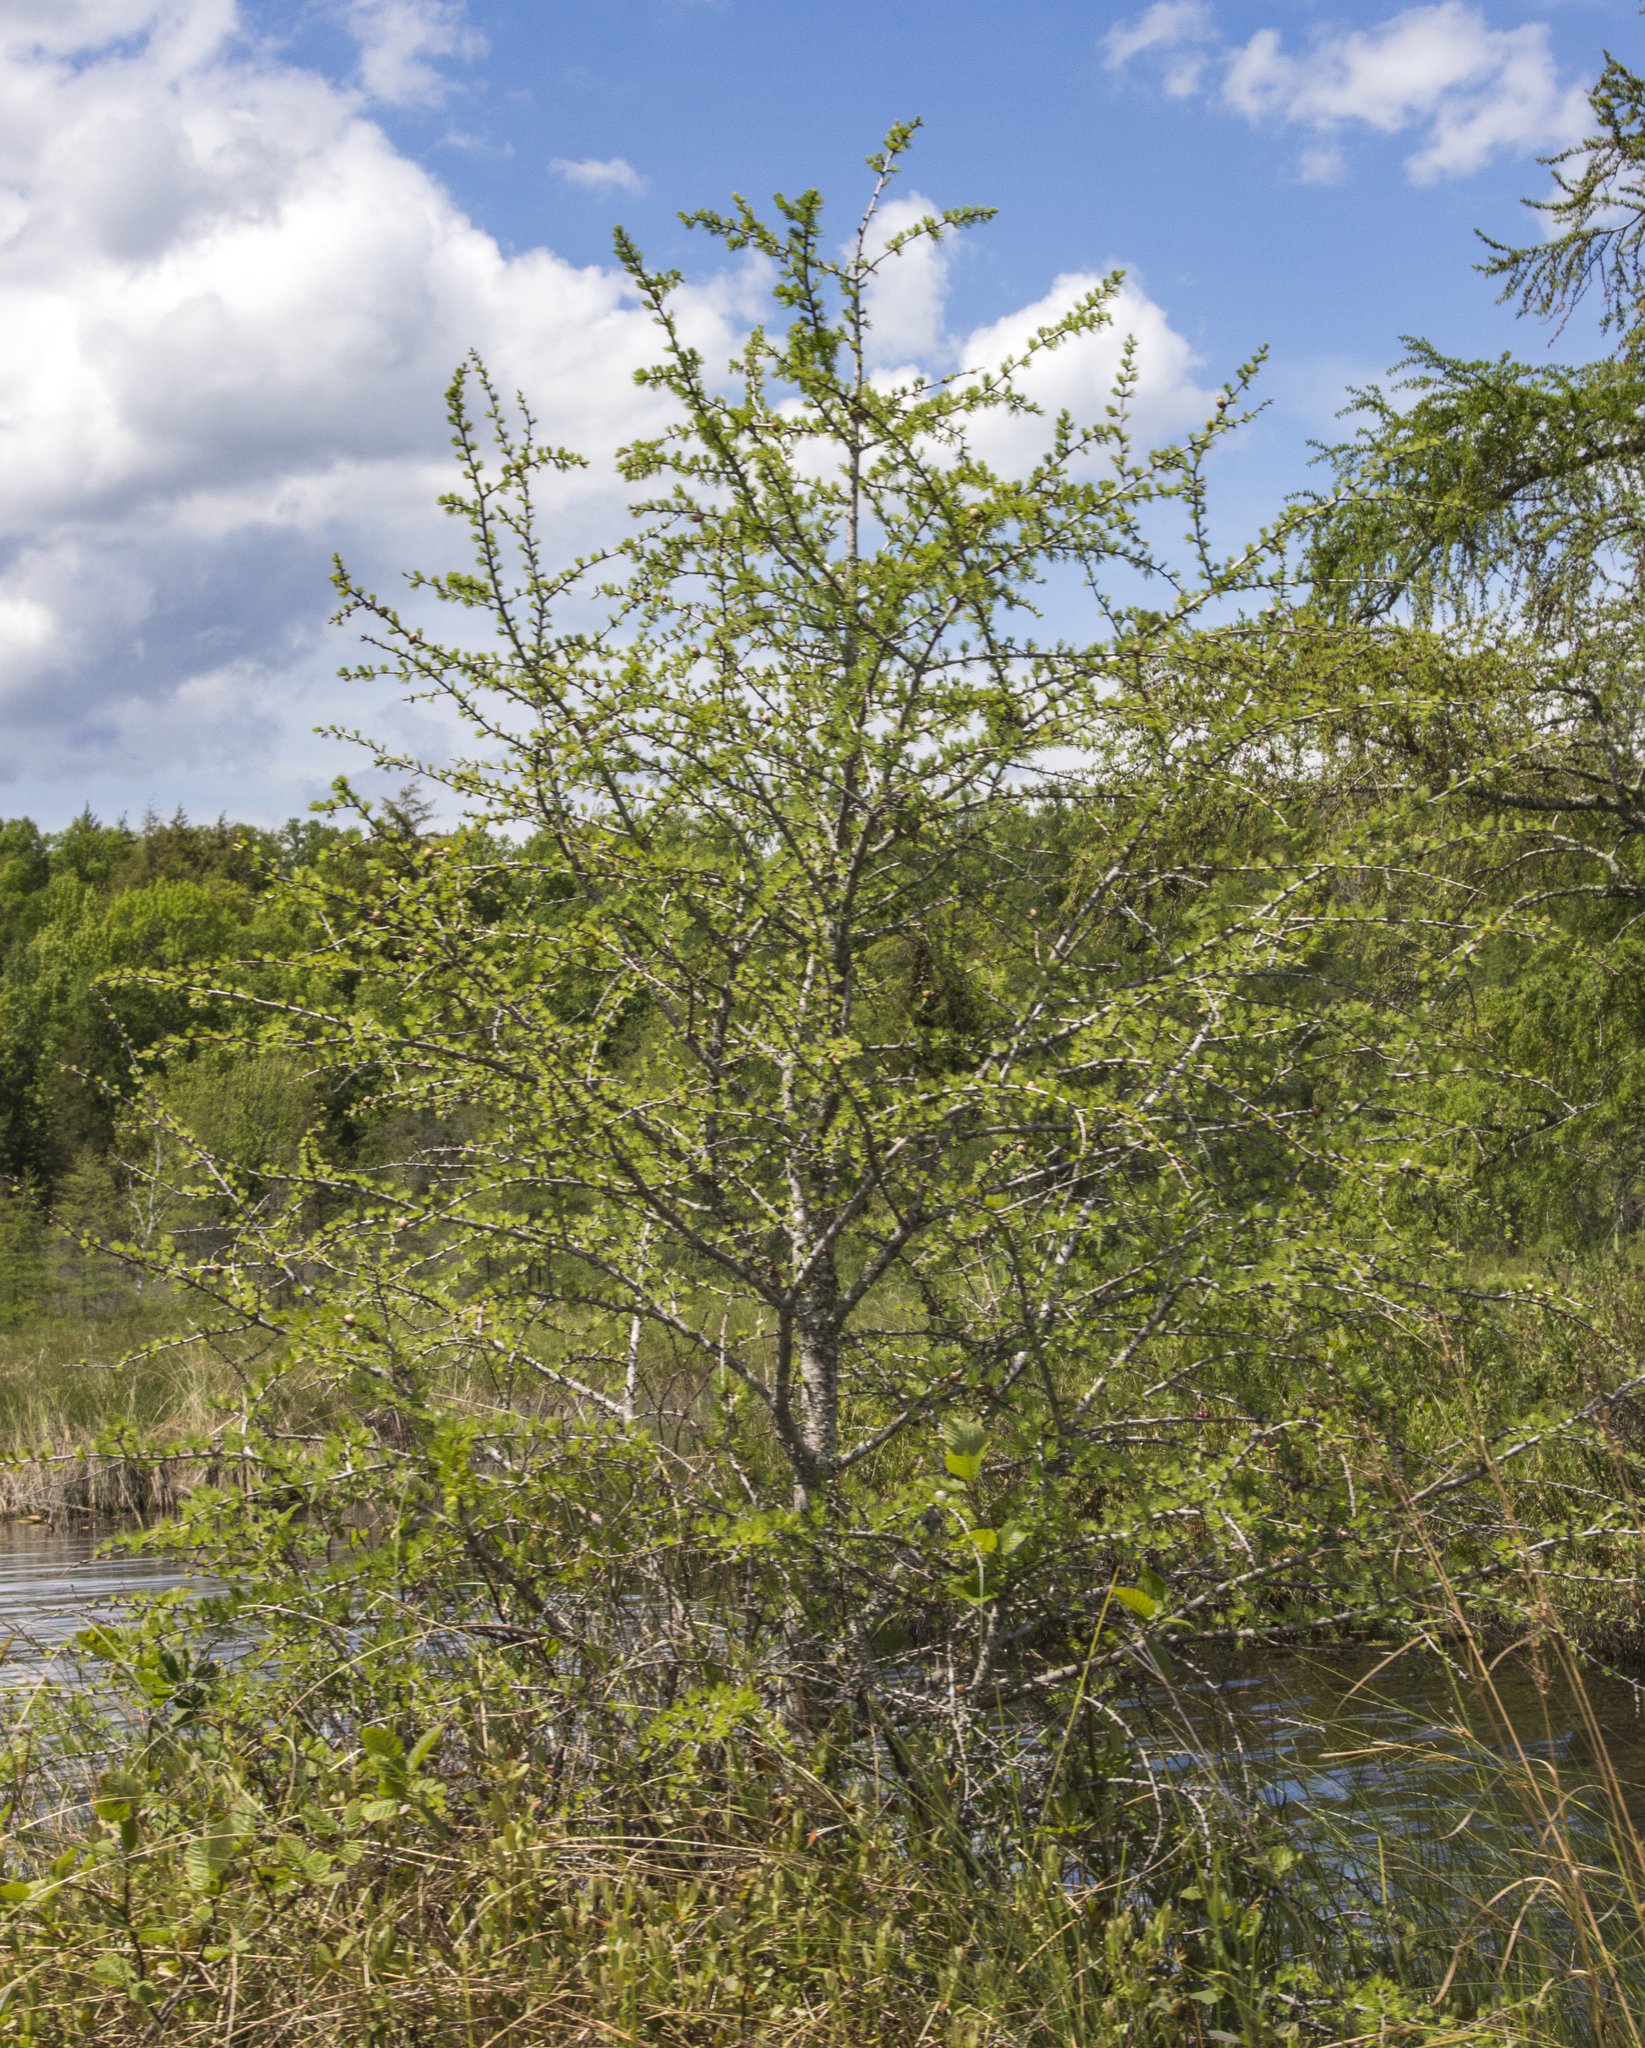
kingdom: Plantae
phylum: Tracheophyta
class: Pinopsida
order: Pinales
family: Pinaceae
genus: Larix
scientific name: Larix laricina
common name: American larch
